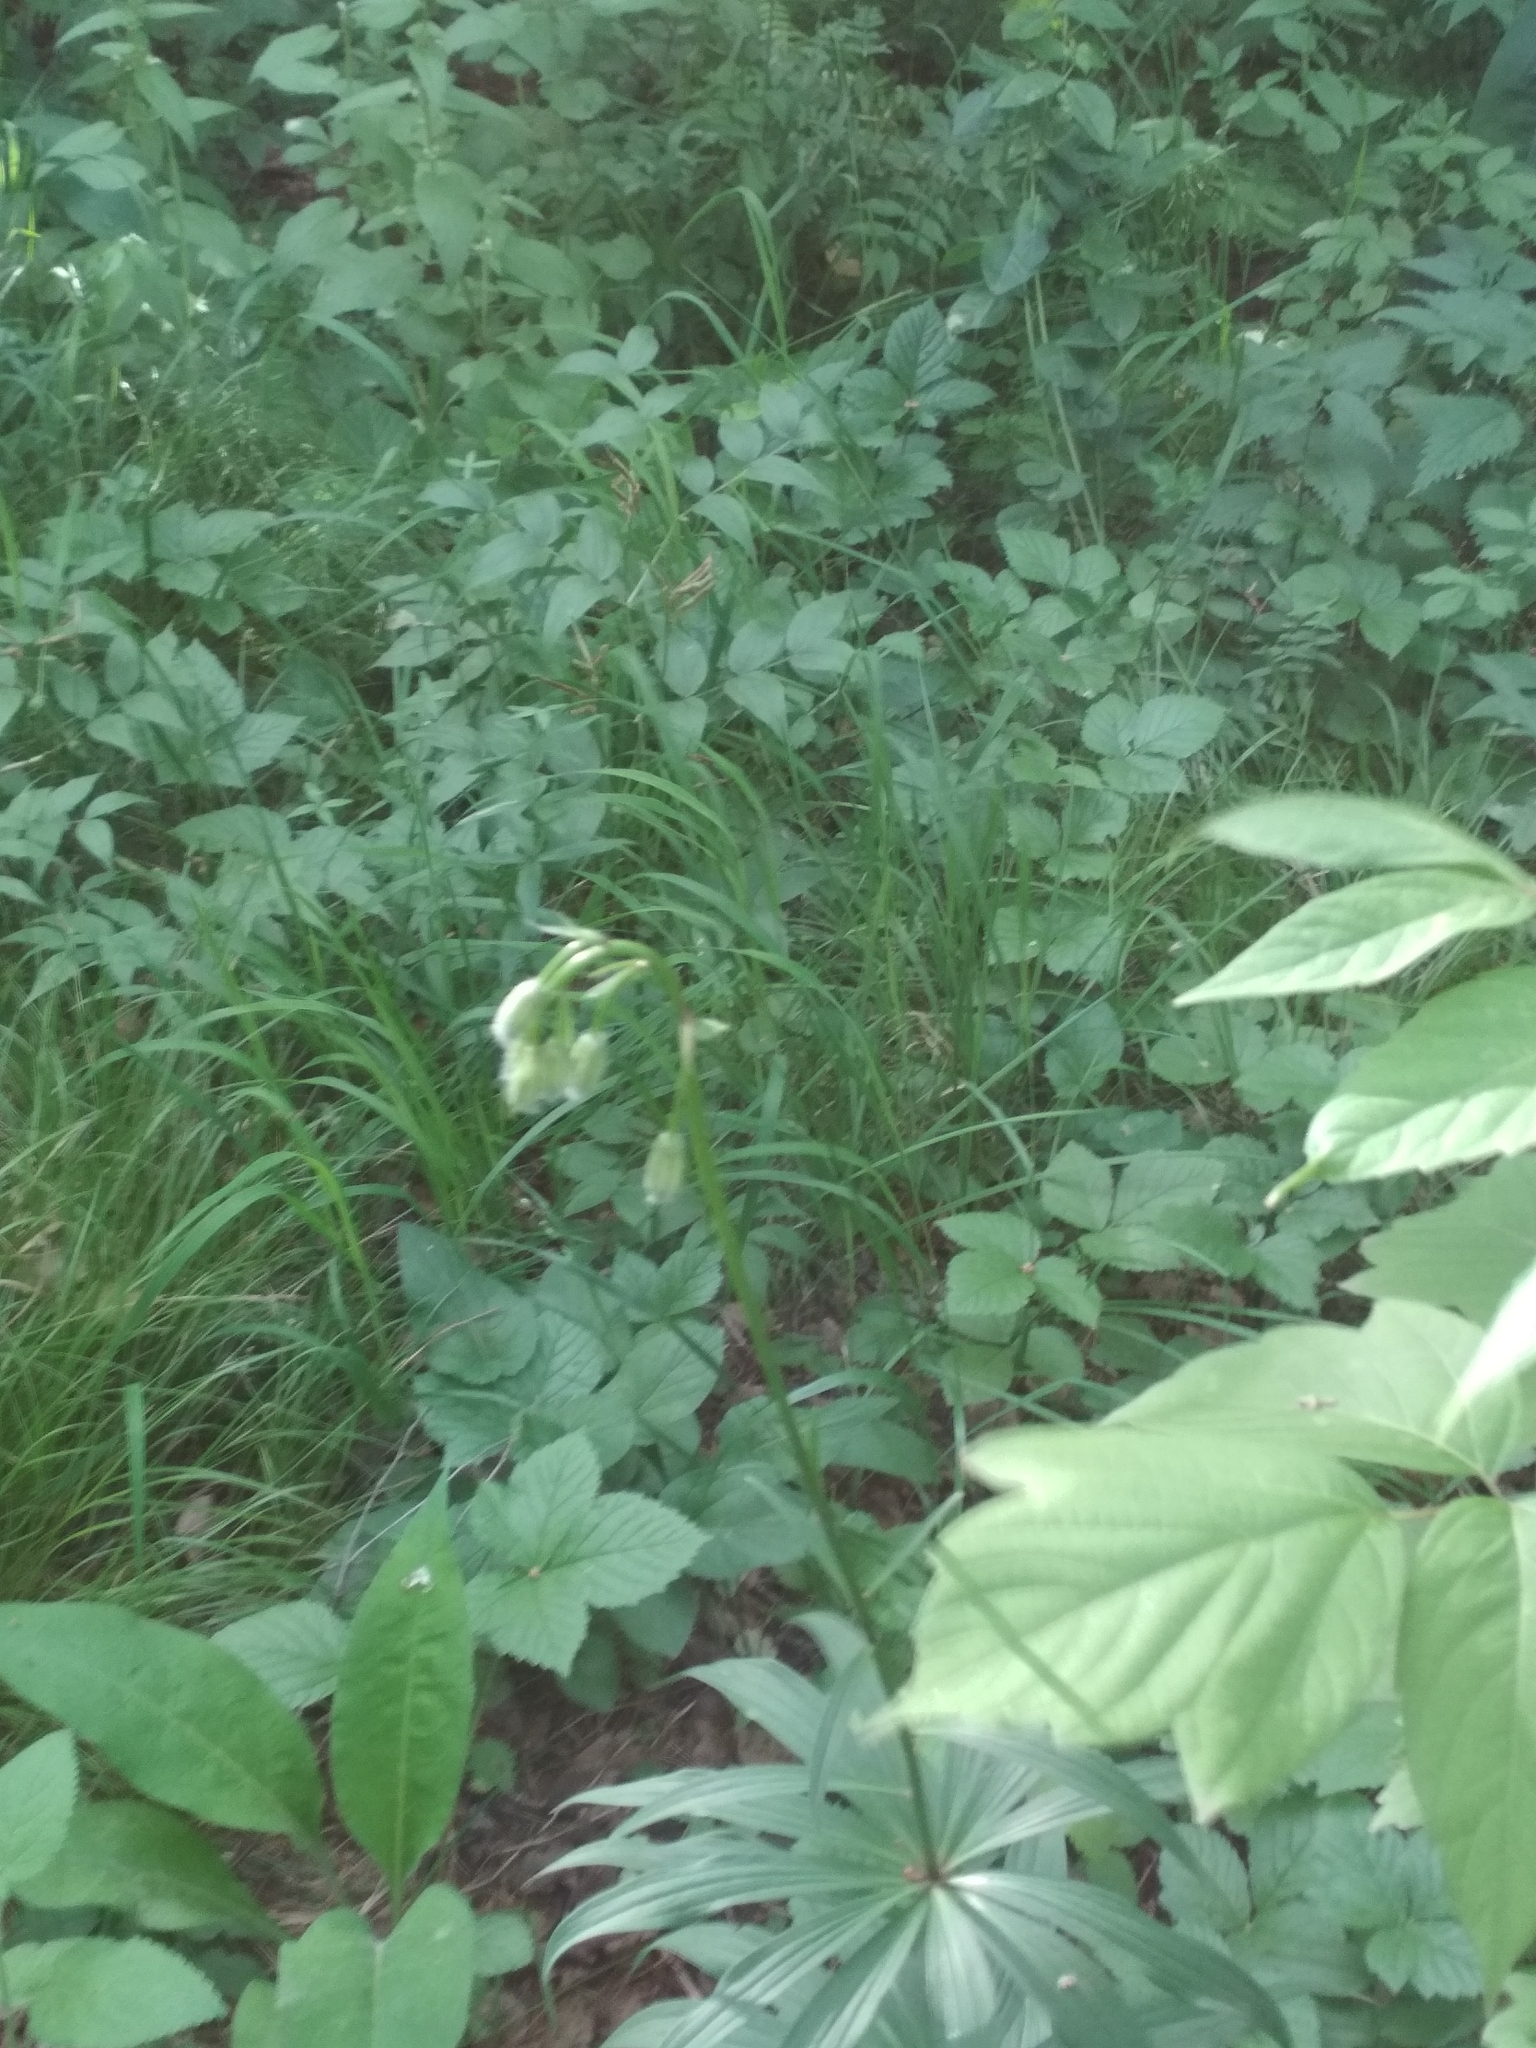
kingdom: Plantae
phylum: Tracheophyta
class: Liliopsida
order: Liliales
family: Liliaceae
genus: Lilium
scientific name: Lilium martagon
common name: Martagon lily
